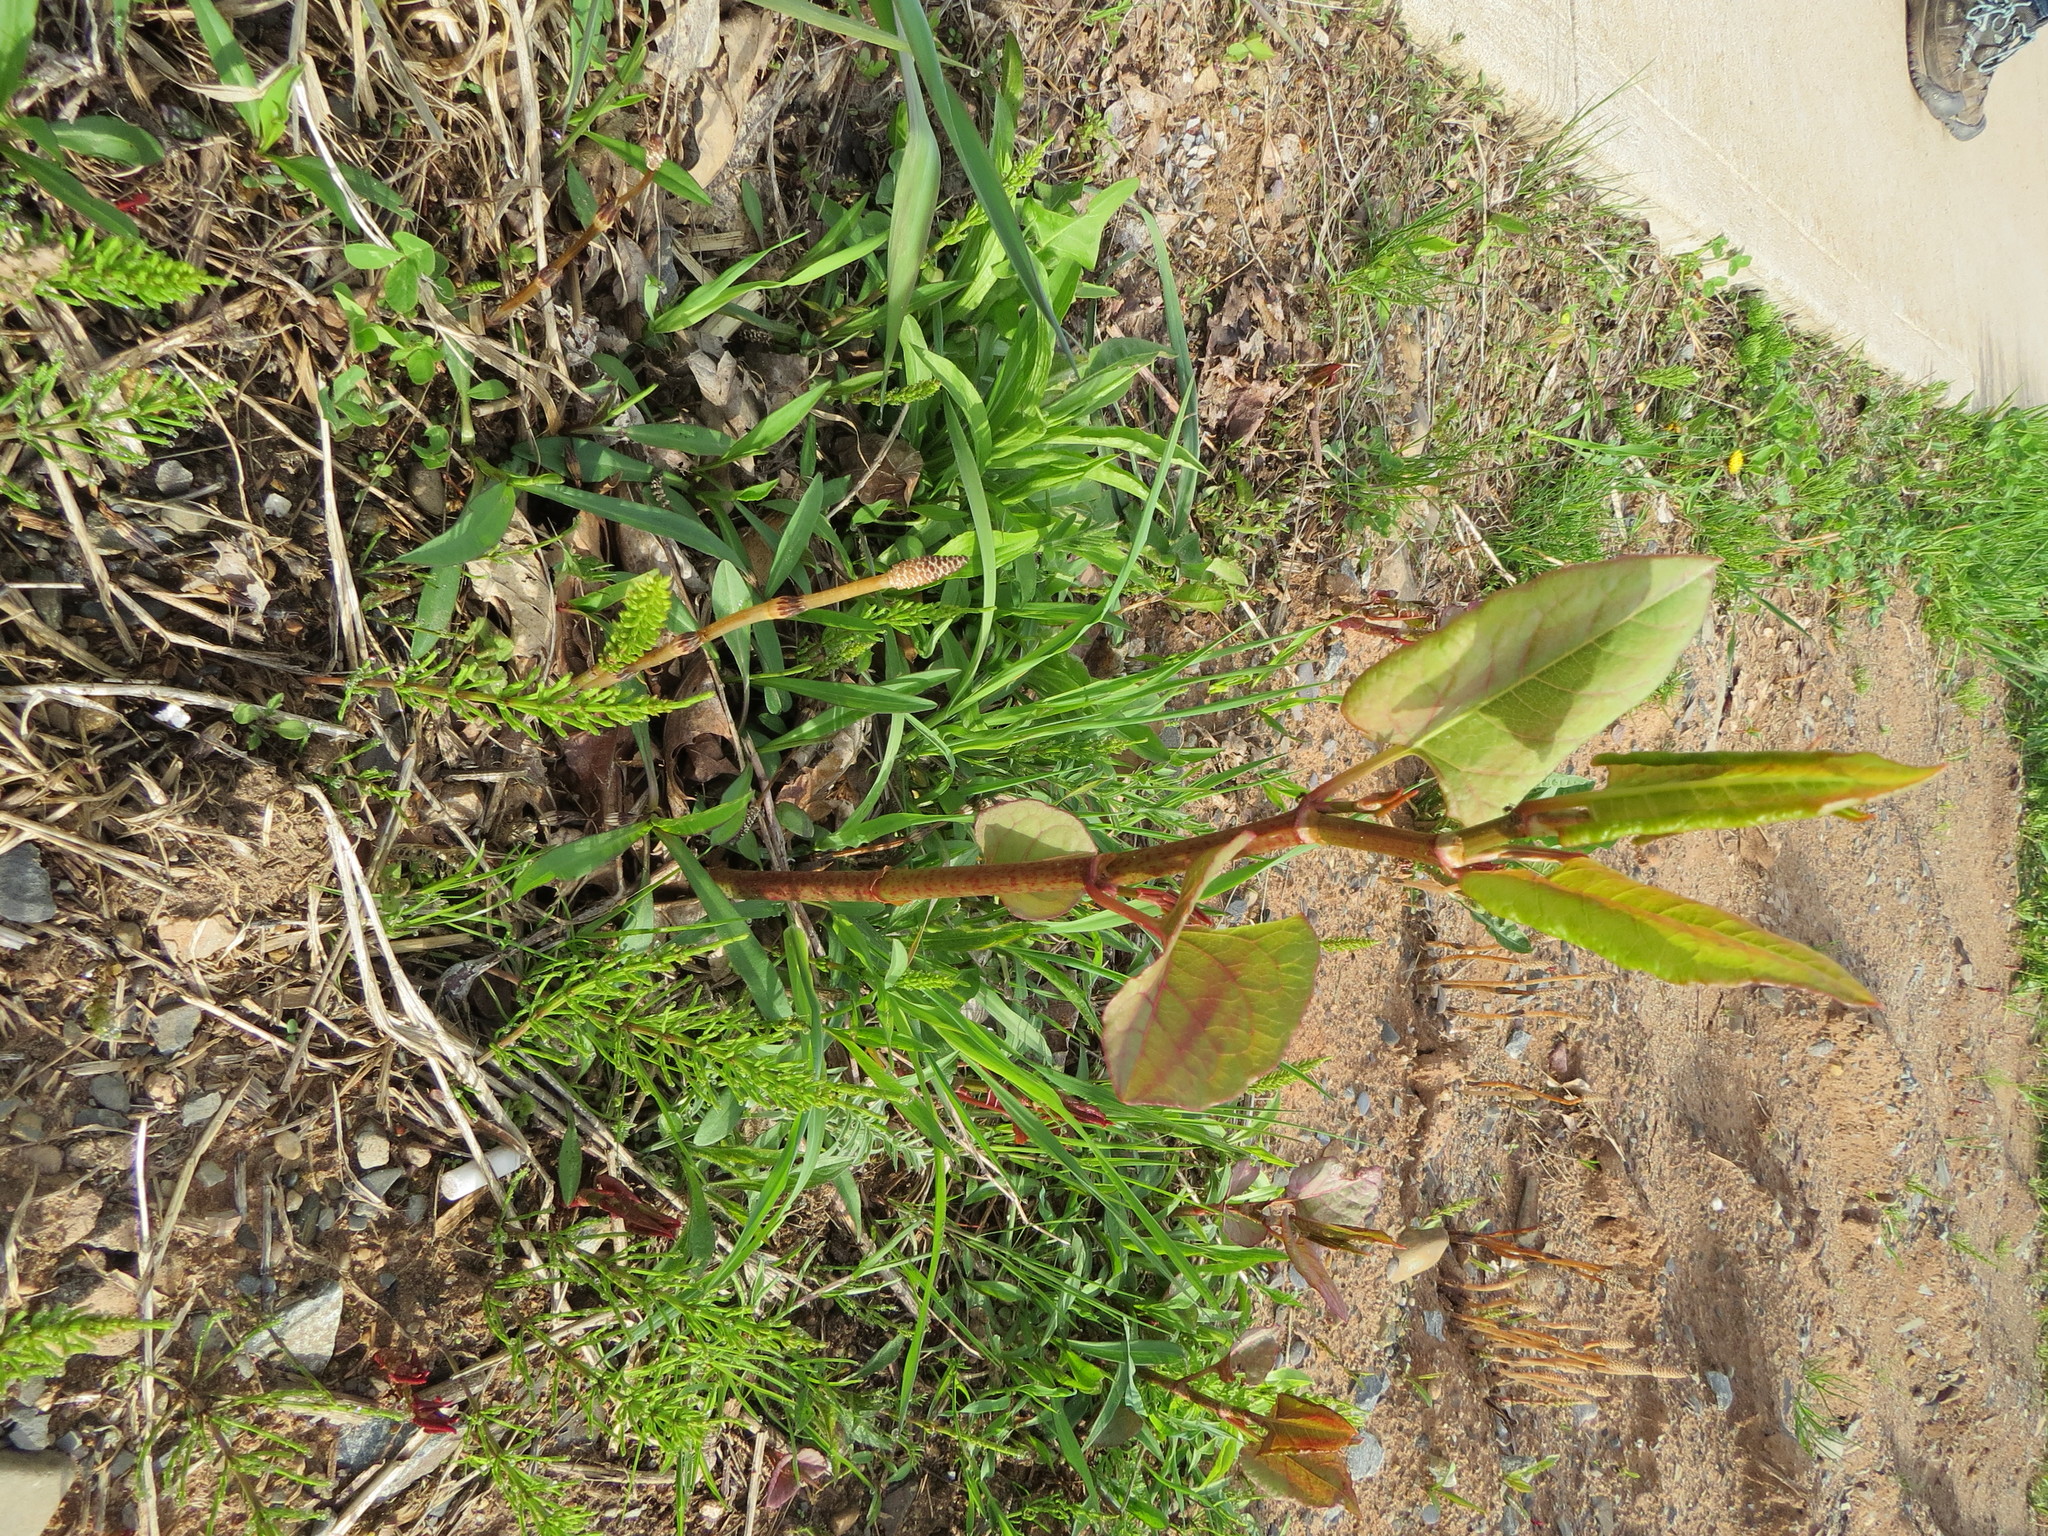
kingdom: Plantae
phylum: Tracheophyta
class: Magnoliopsida
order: Caryophyllales
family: Polygonaceae
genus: Reynoutria
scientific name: Reynoutria japonica
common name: Japanese knotweed
